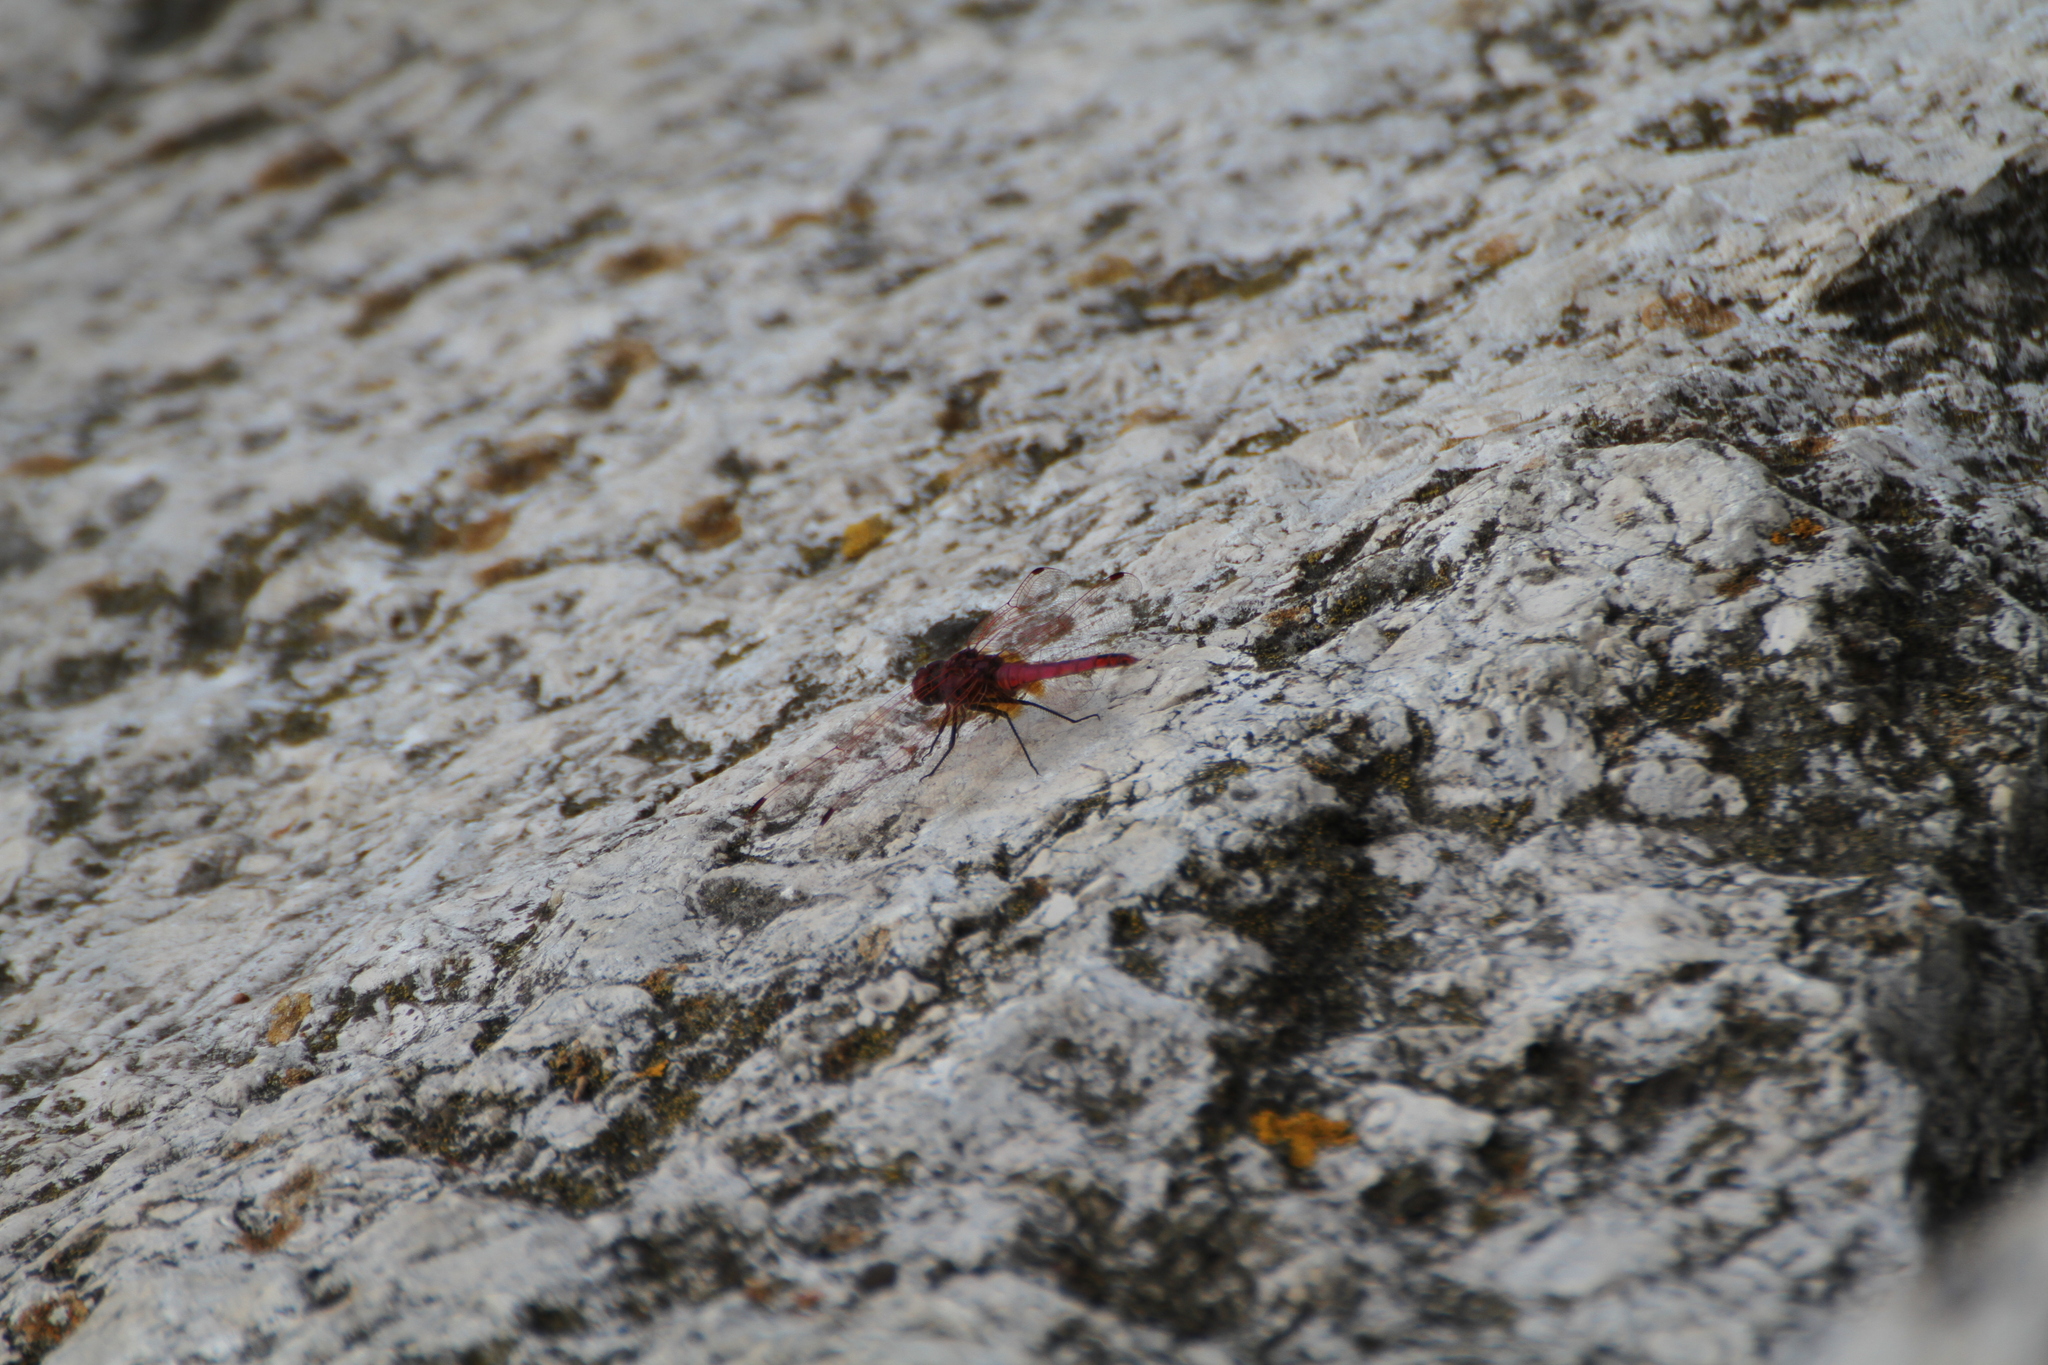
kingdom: Animalia
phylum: Arthropoda
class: Insecta
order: Odonata
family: Libellulidae
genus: Trithemis
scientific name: Trithemis annulata
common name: Violet dropwing
